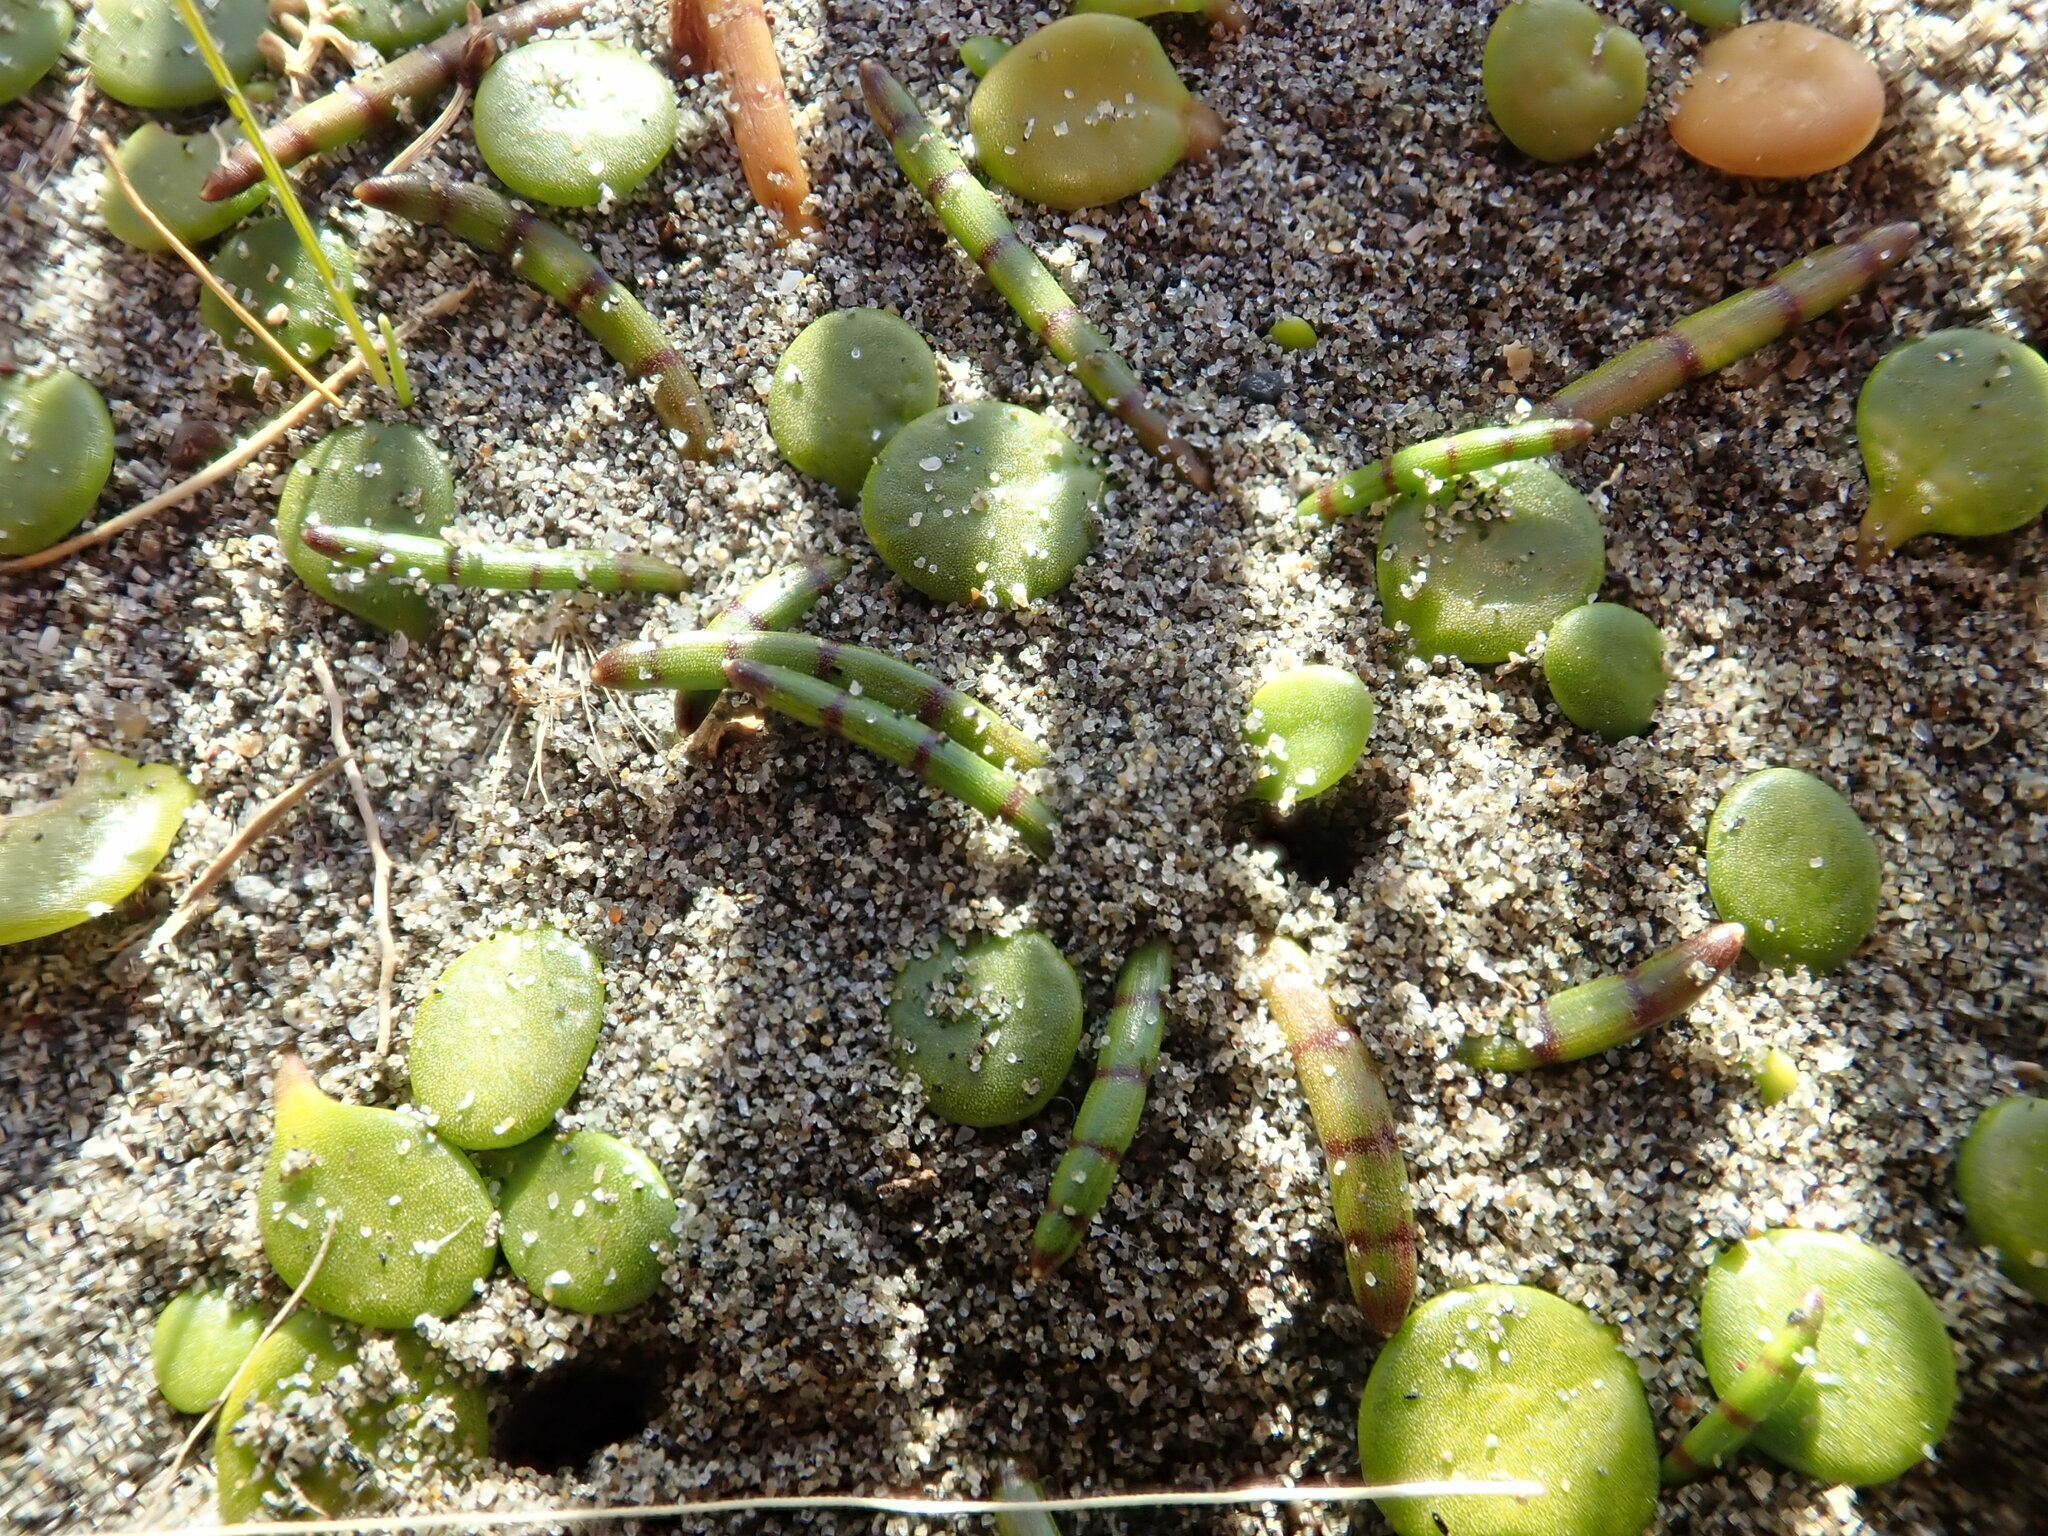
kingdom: Plantae
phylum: Tracheophyta
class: Magnoliopsida
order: Apiales
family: Apiaceae
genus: Lilaeopsis
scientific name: Lilaeopsis novae-zelandiae
